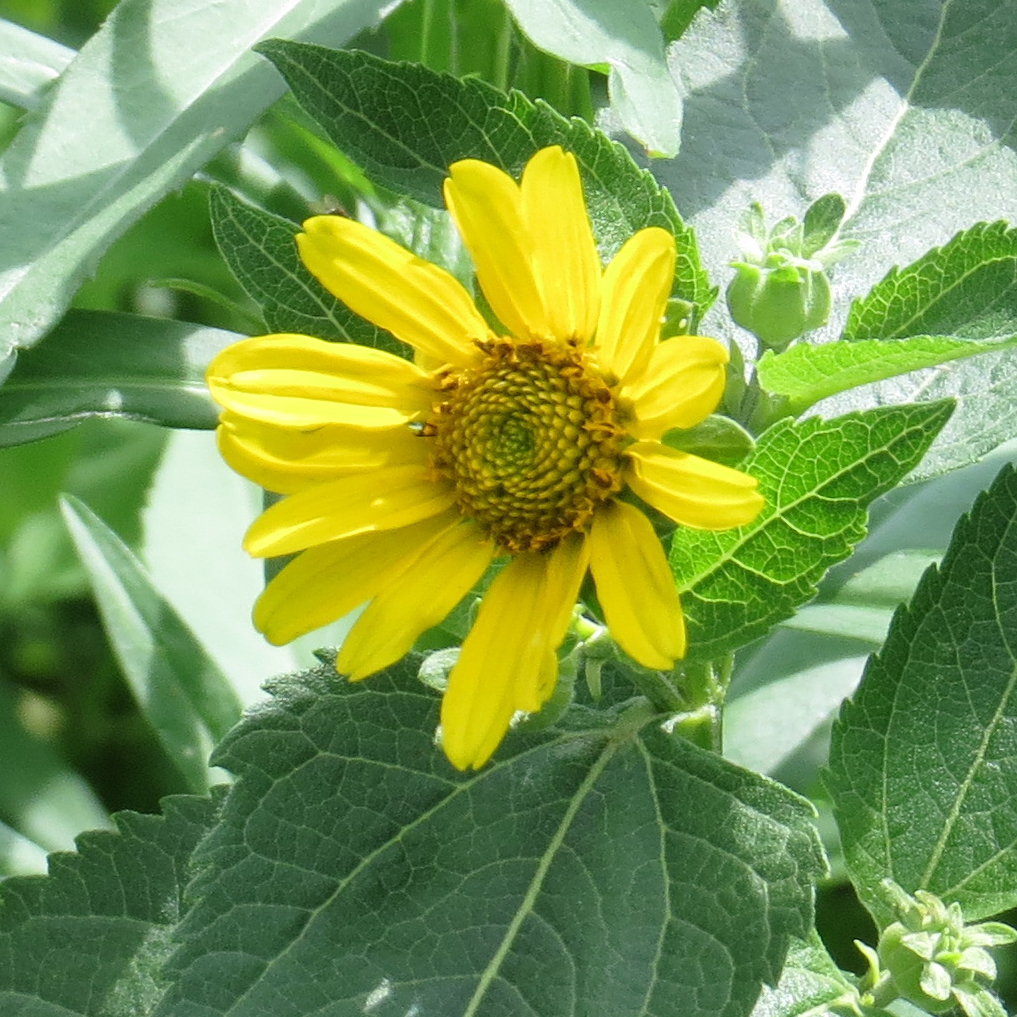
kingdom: Plantae
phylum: Tracheophyta
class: Magnoliopsida
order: Asterales
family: Asteraceae
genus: Heliopsis
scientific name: Heliopsis helianthoides
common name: False sunflower
